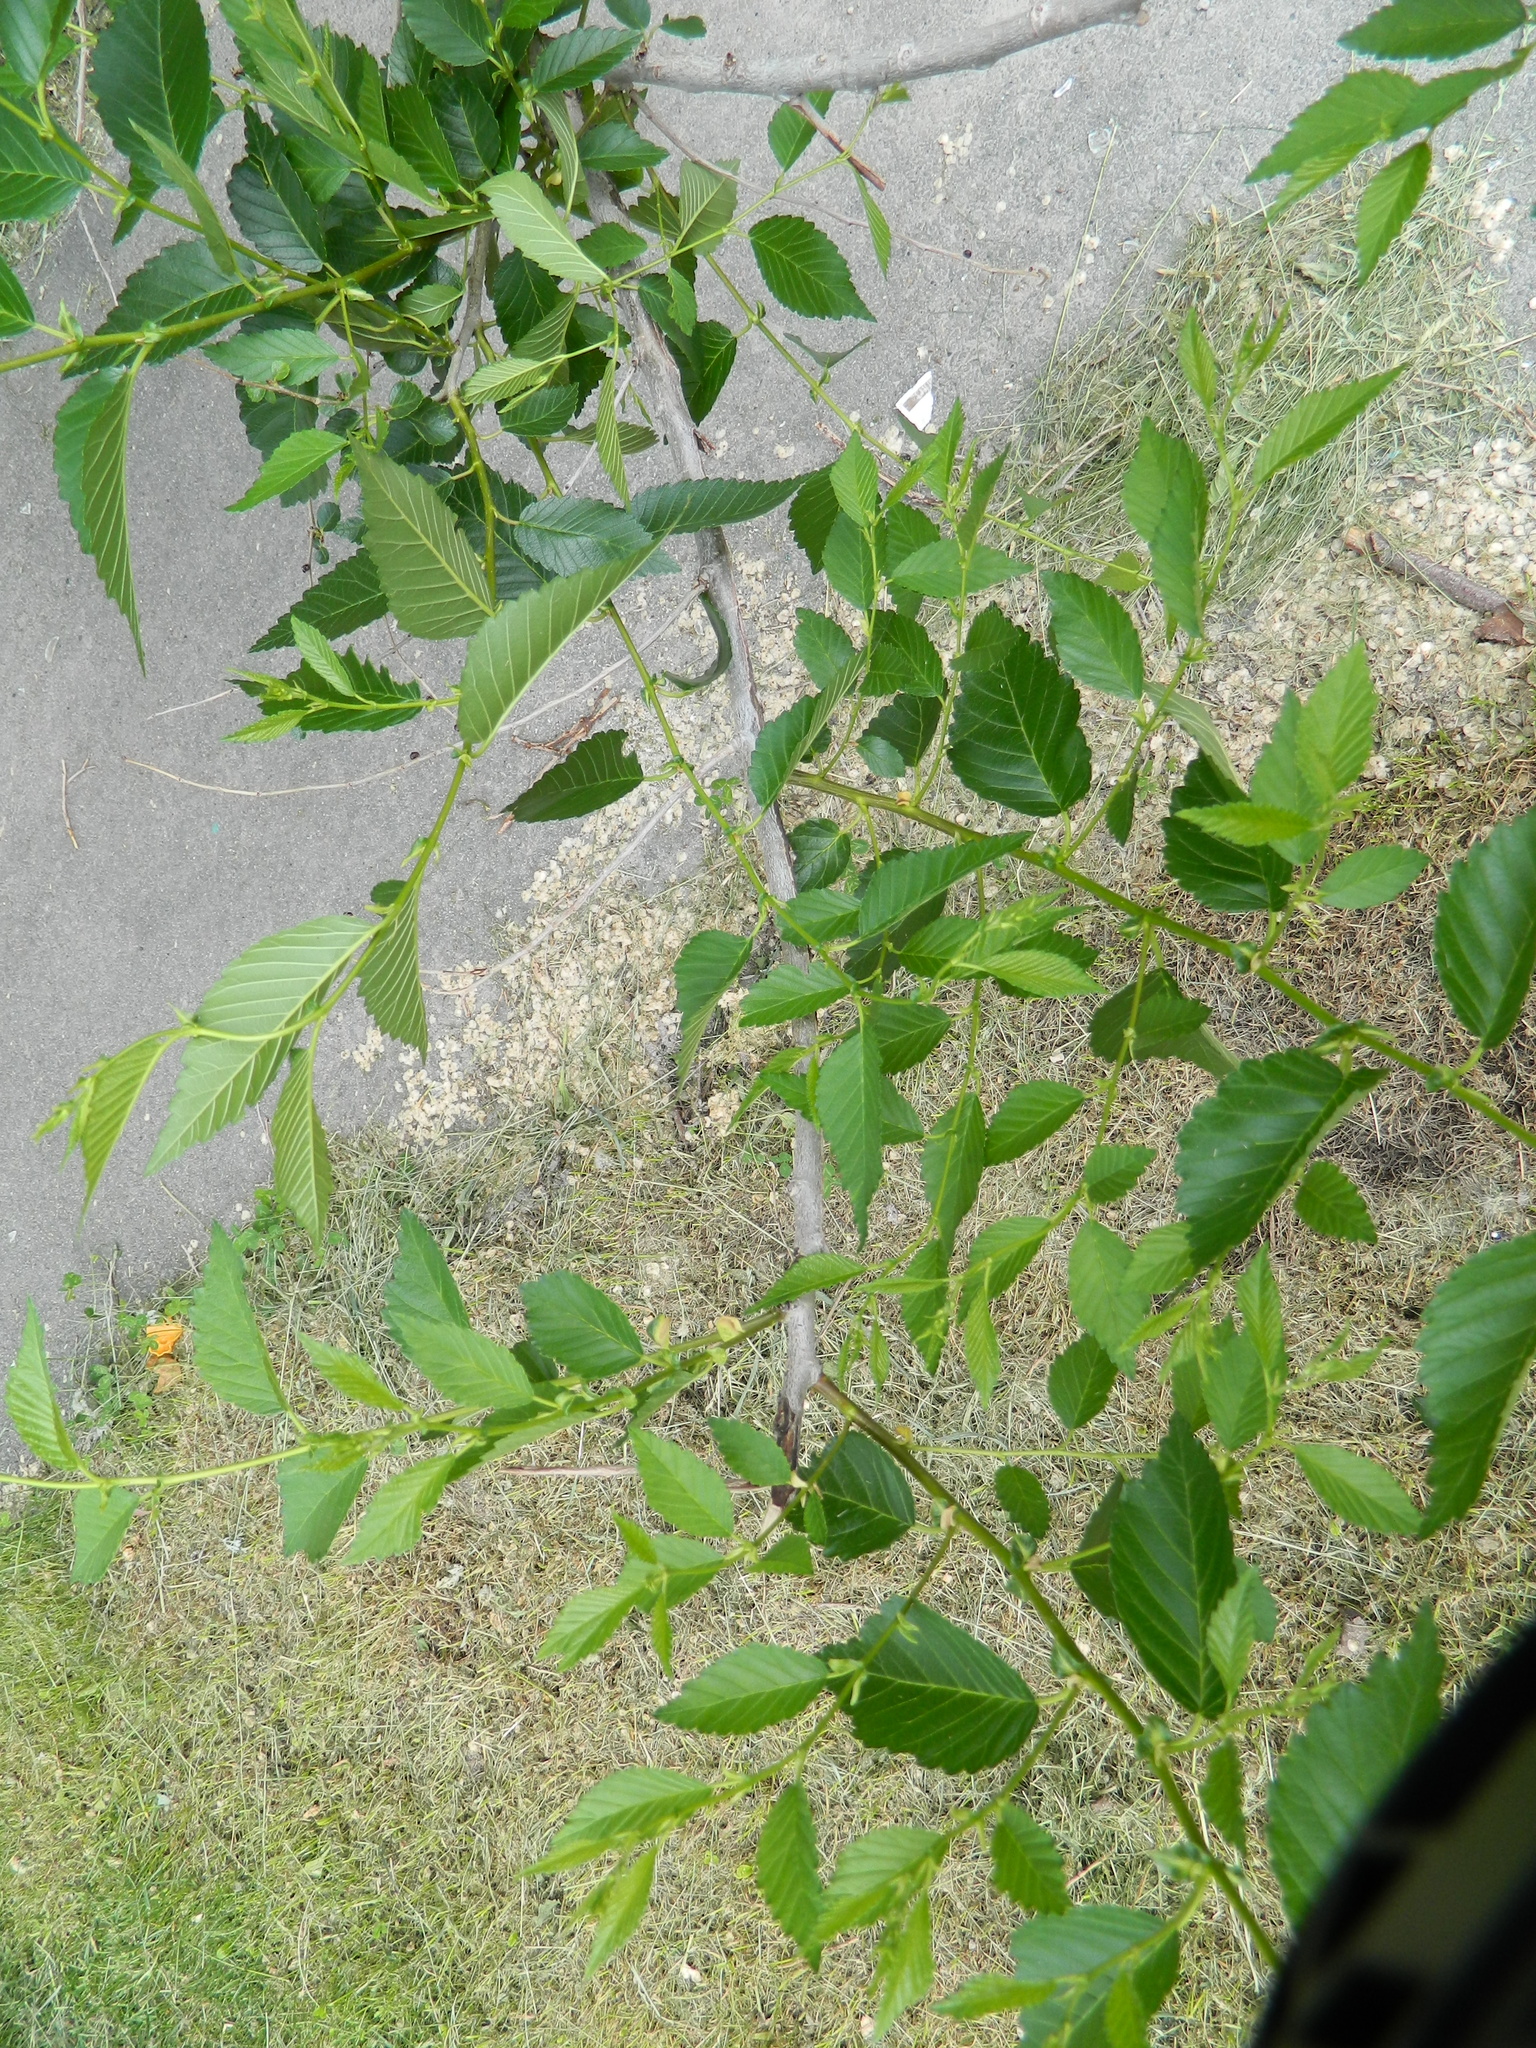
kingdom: Plantae
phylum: Tracheophyta
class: Magnoliopsida
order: Rosales
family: Ulmaceae
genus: Ulmus
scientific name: Ulmus pumila
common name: Siberian elm
